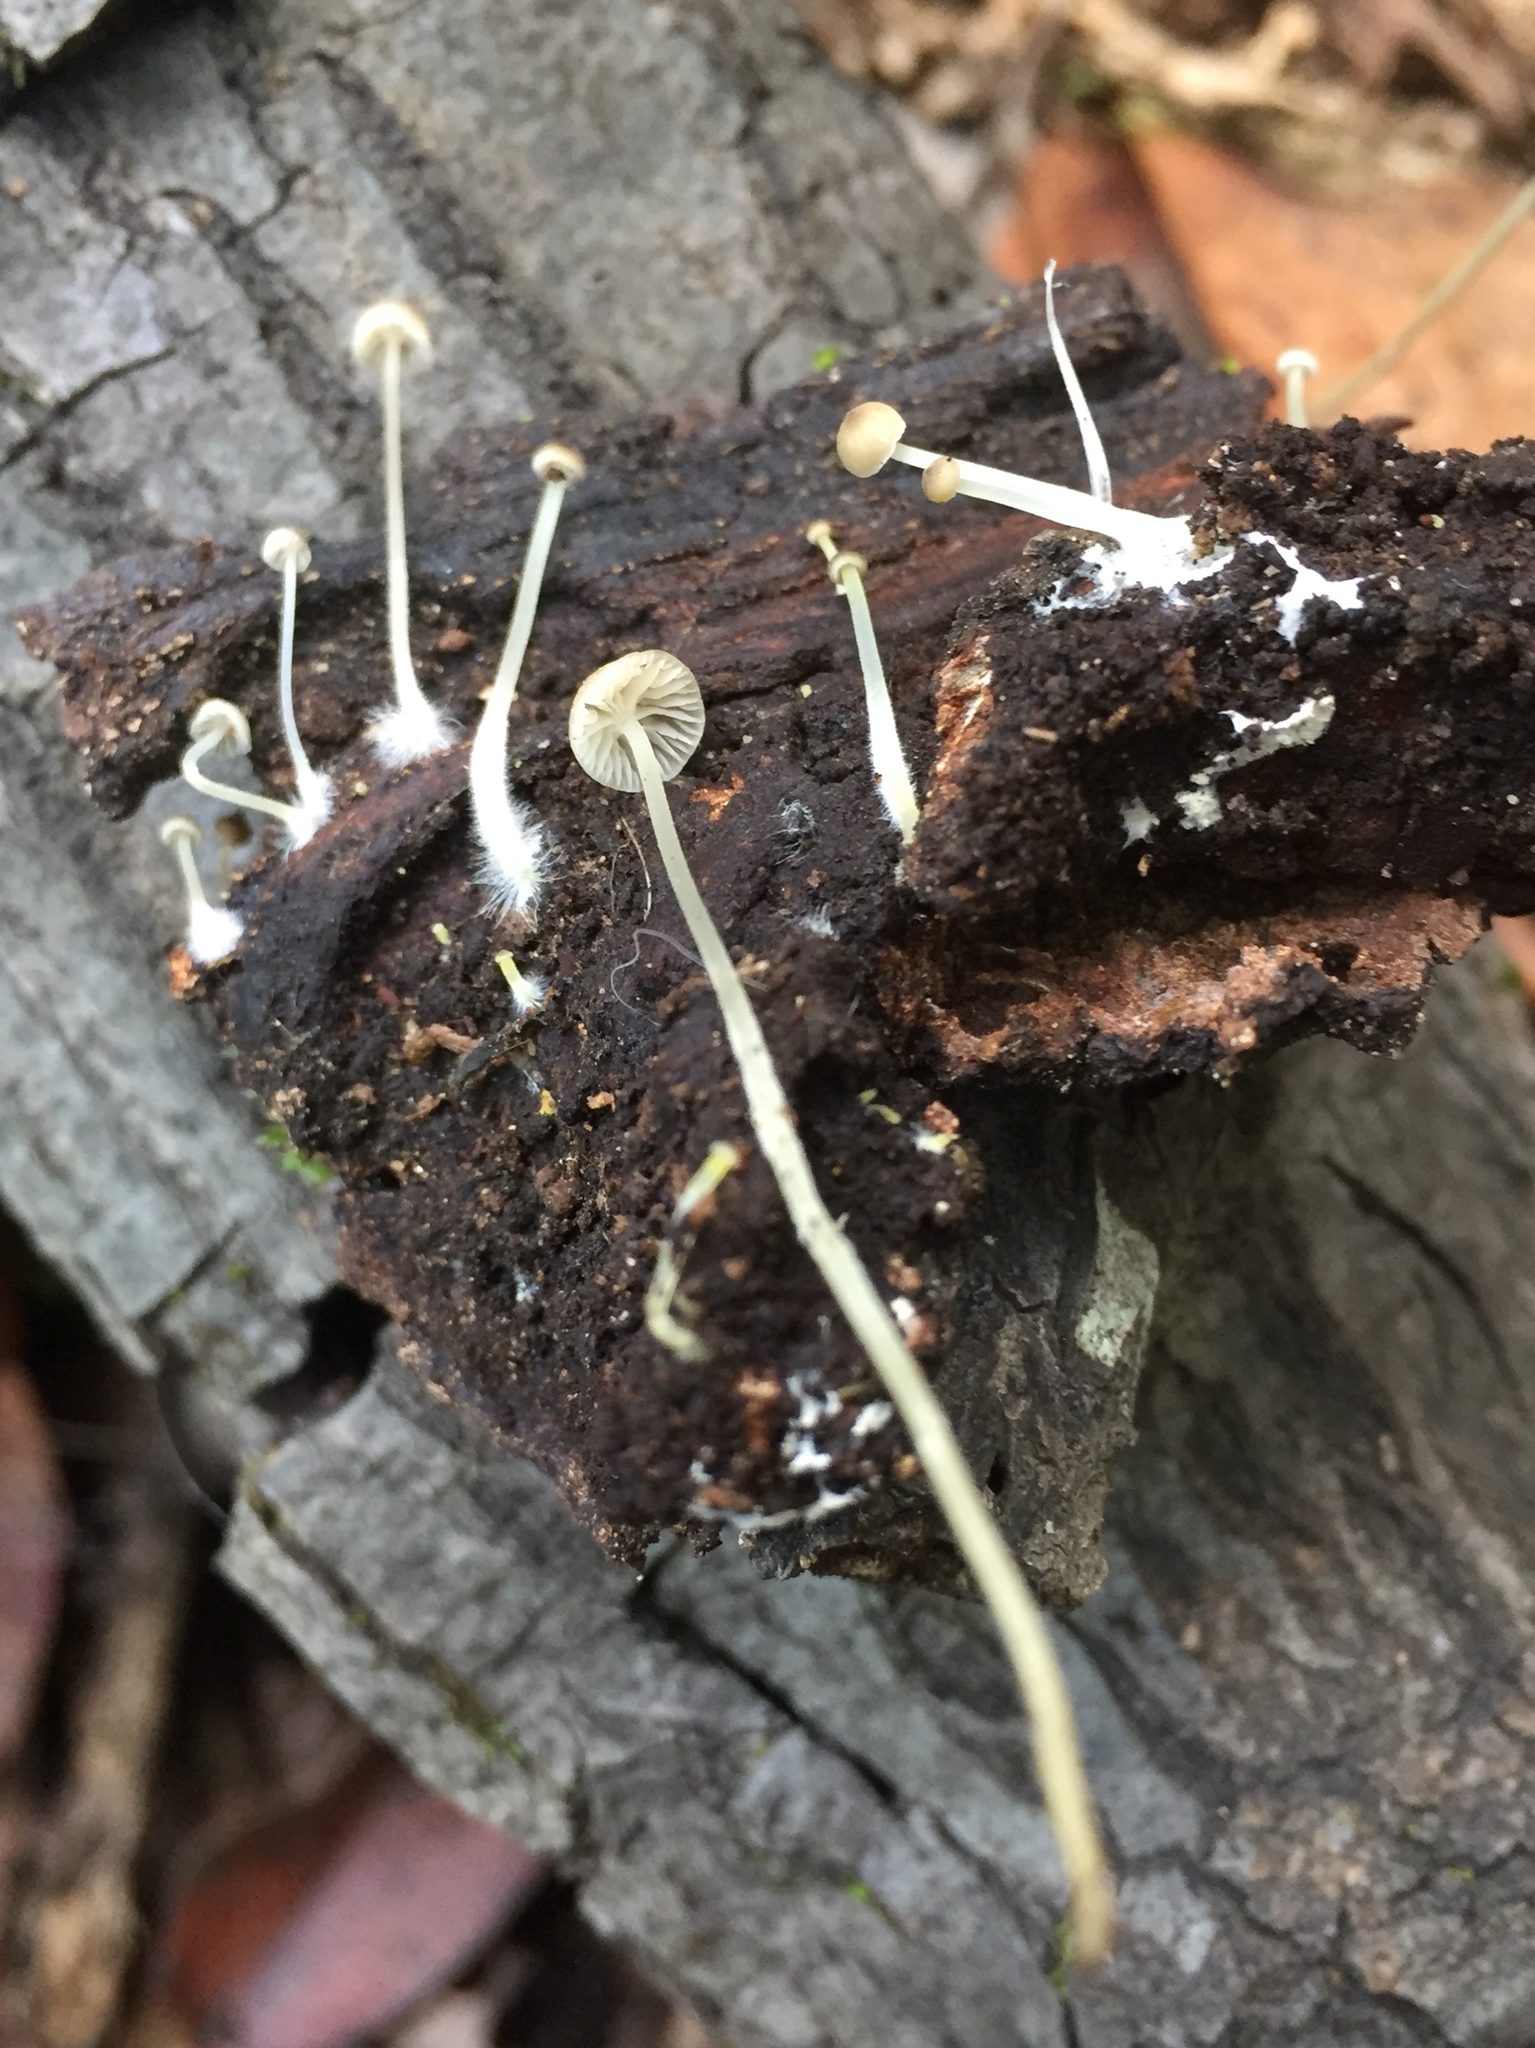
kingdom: Fungi
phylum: Basidiomycota
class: Agaricomycetes
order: Agaricales
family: Porotheleaceae
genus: Phloeomana
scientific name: Phloeomana speirea
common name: Bark bonnet
